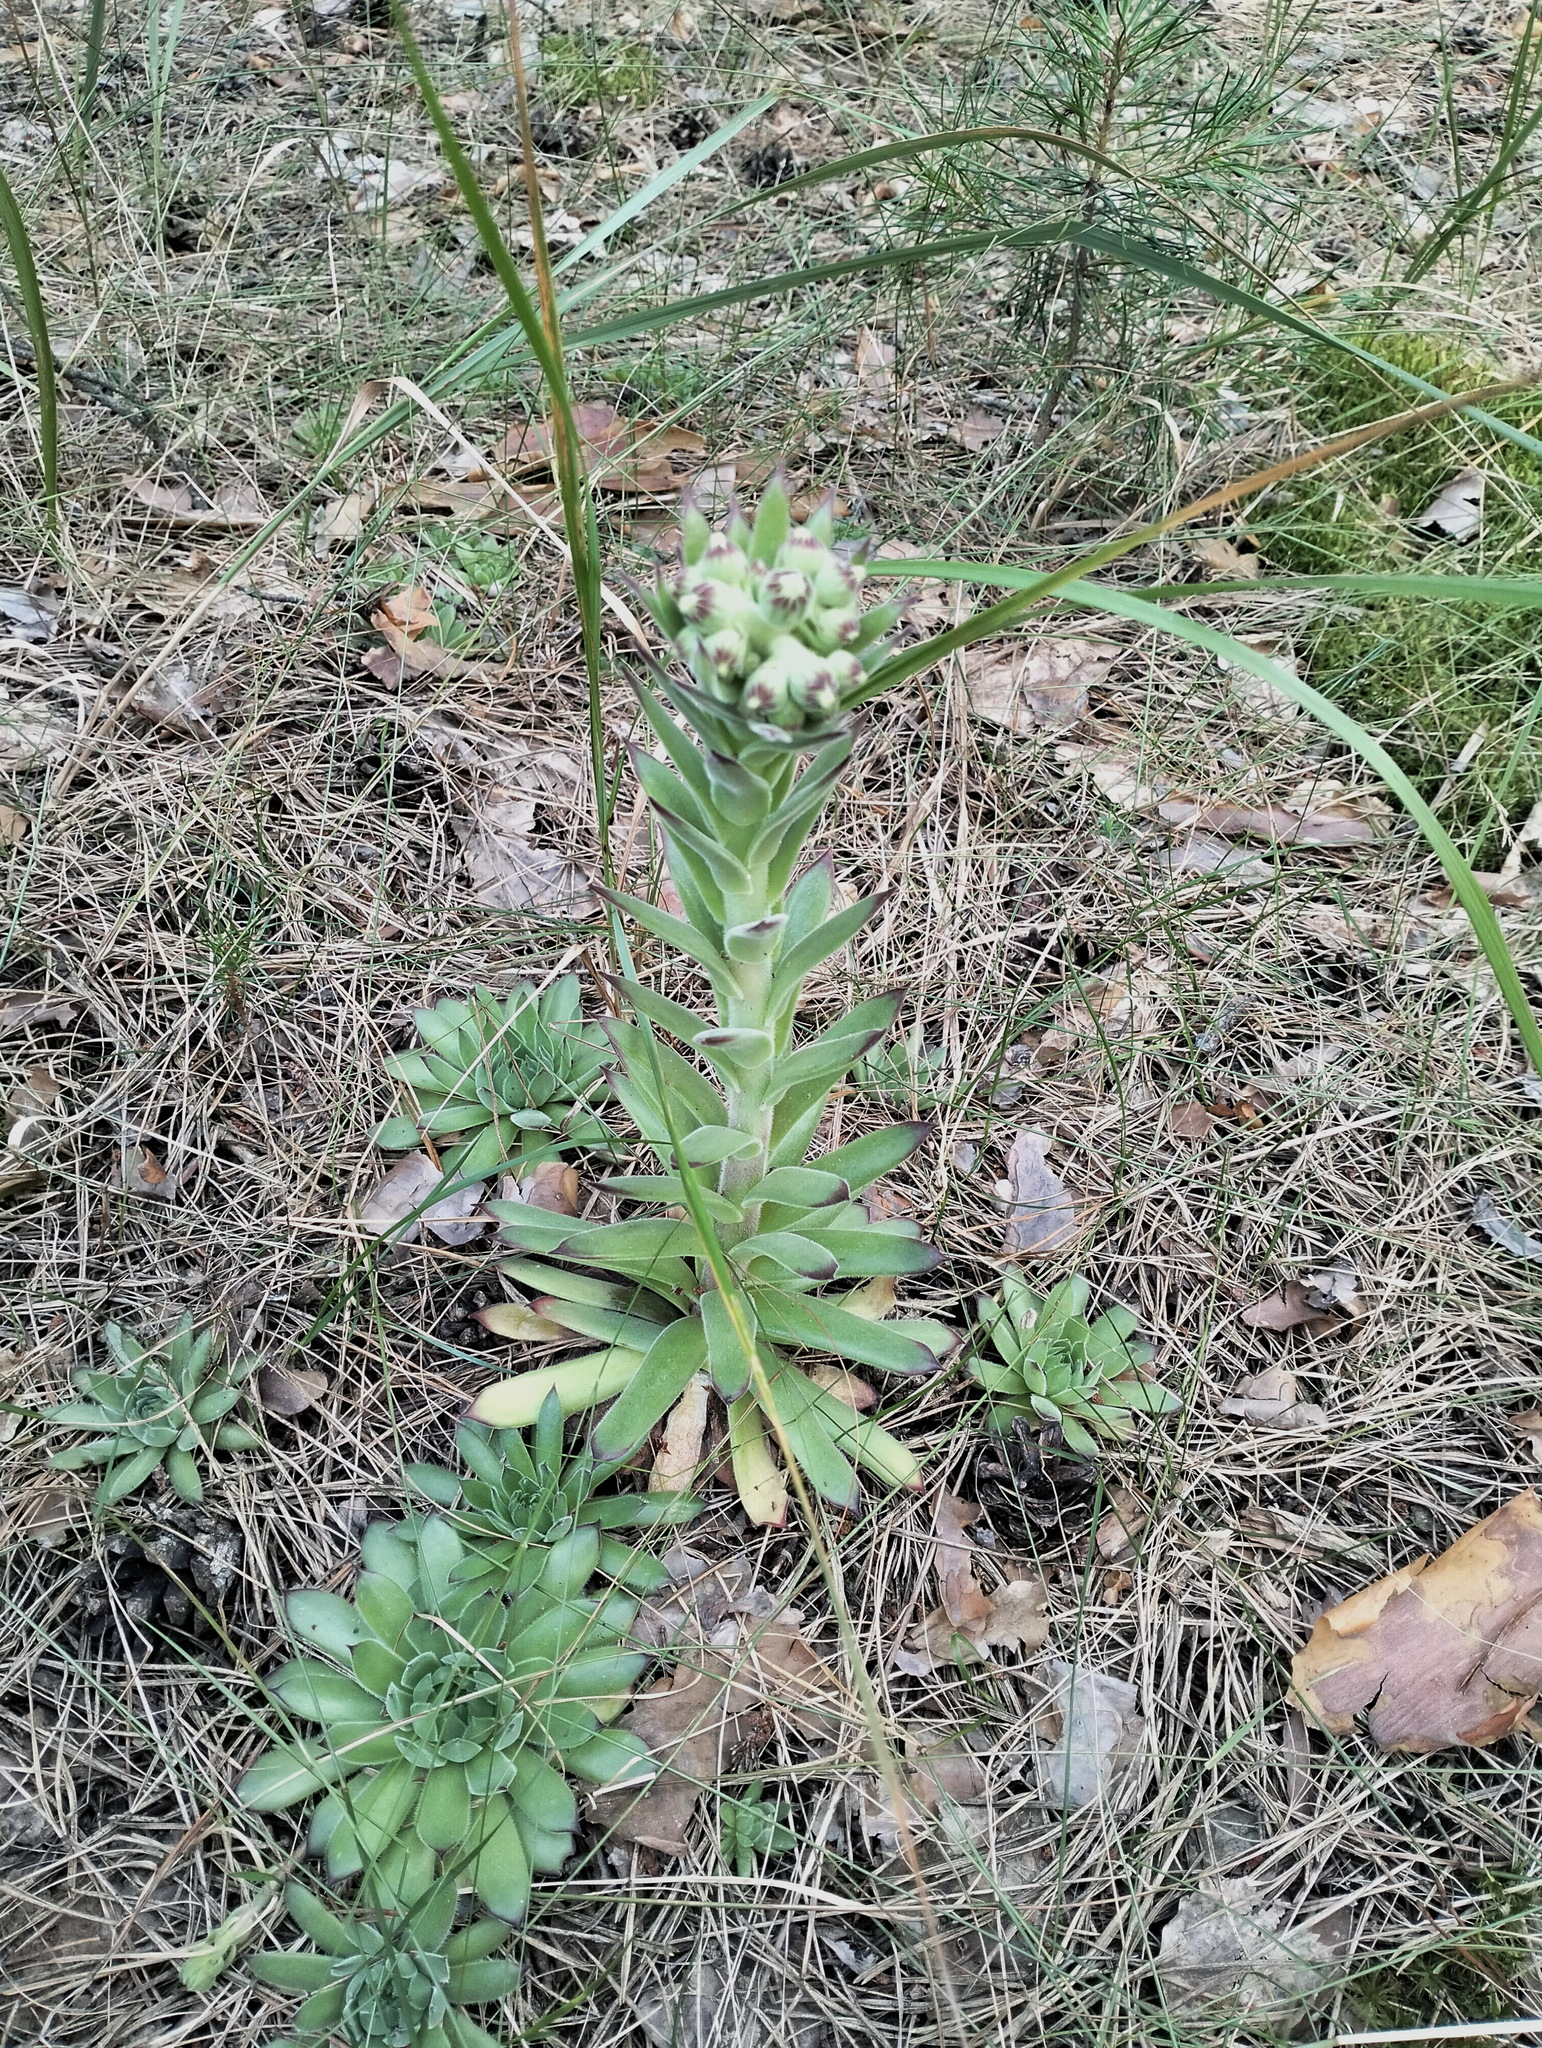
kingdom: Plantae
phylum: Tracheophyta
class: Magnoliopsida
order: Saxifragales
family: Crassulaceae
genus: Sempervivum
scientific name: Sempervivum ruthenicum
